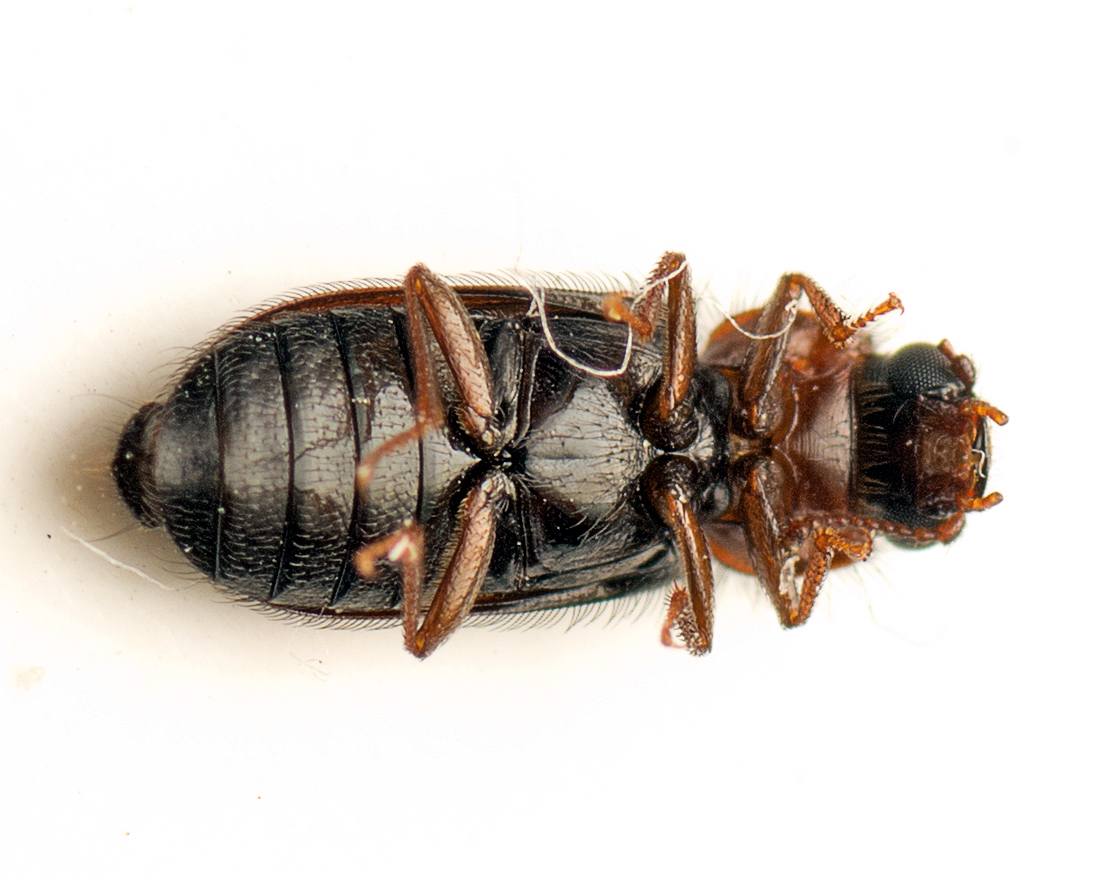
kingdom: Animalia
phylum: Arthropoda
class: Insecta
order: Coleoptera
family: Acanthocnemidae
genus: Acanthocnemus
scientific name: Acanthocnemus nigricans
